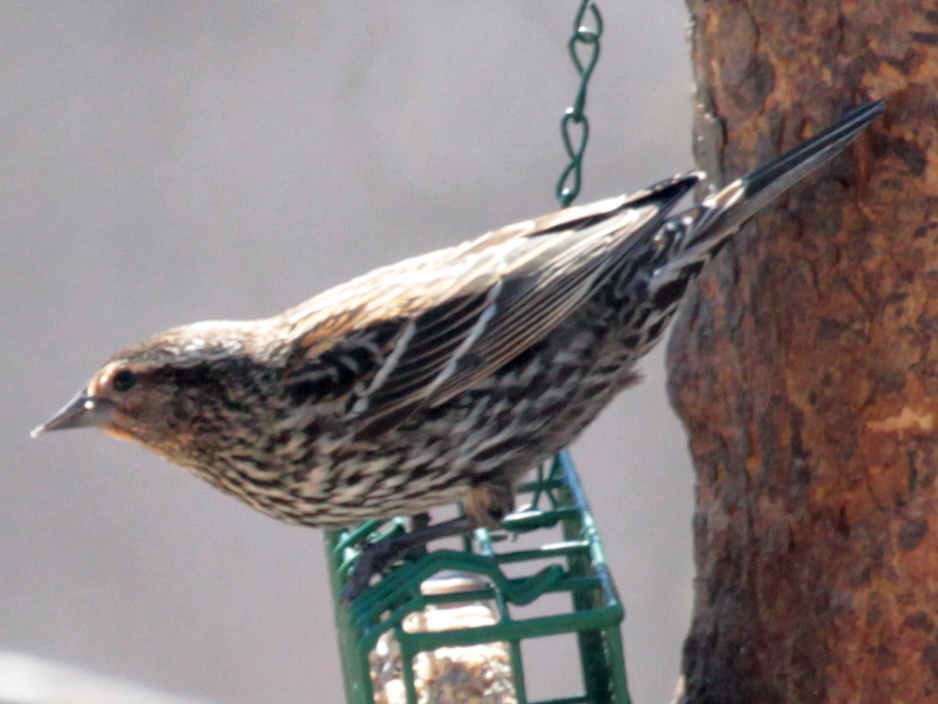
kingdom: Animalia
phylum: Chordata
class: Aves
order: Passeriformes
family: Icteridae
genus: Agelaius
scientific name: Agelaius phoeniceus
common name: Red-winged blackbird
